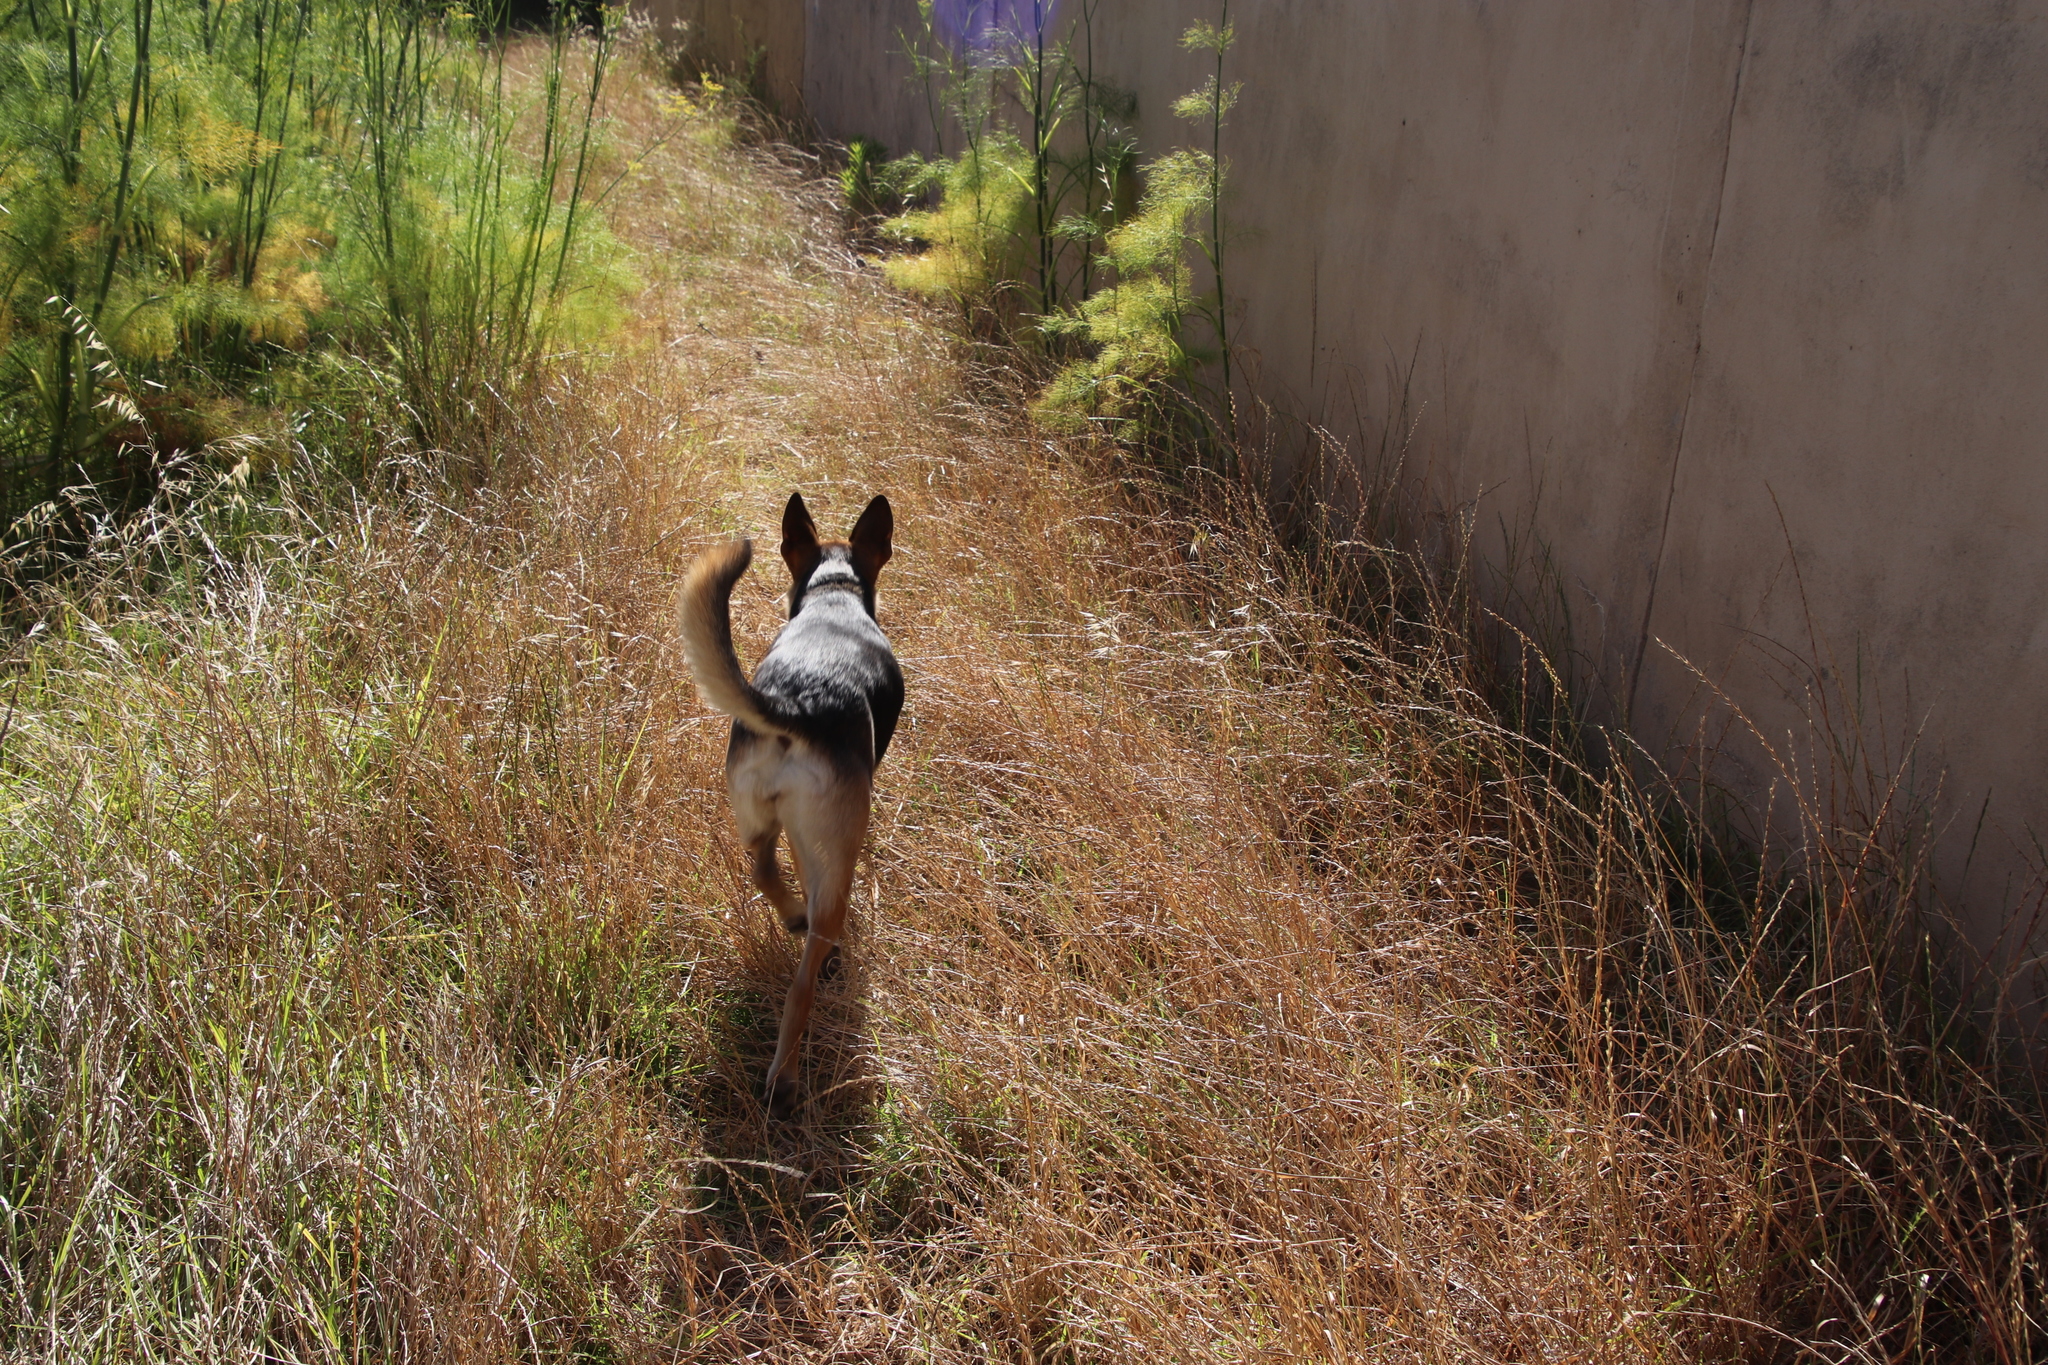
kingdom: Plantae
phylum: Tracheophyta
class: Magnoliopsida
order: Apiales
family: Apiaceae
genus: Foeniculum
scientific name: Foeniculum vulgare
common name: Fennel
